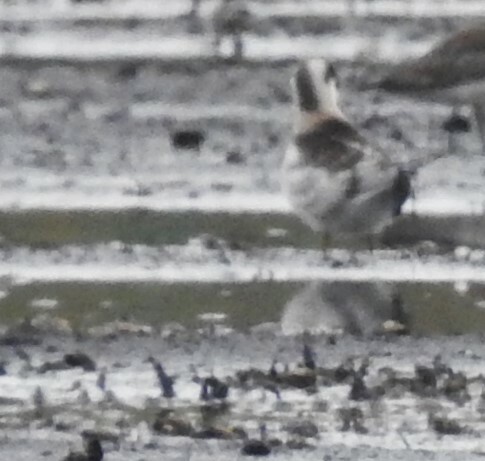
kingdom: Animalia
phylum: Chordata
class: Aves
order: Charadriiformes
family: Scolopacidae
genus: Phalaropus
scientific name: Phalaropus lobatus
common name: Red-necked phalarope
